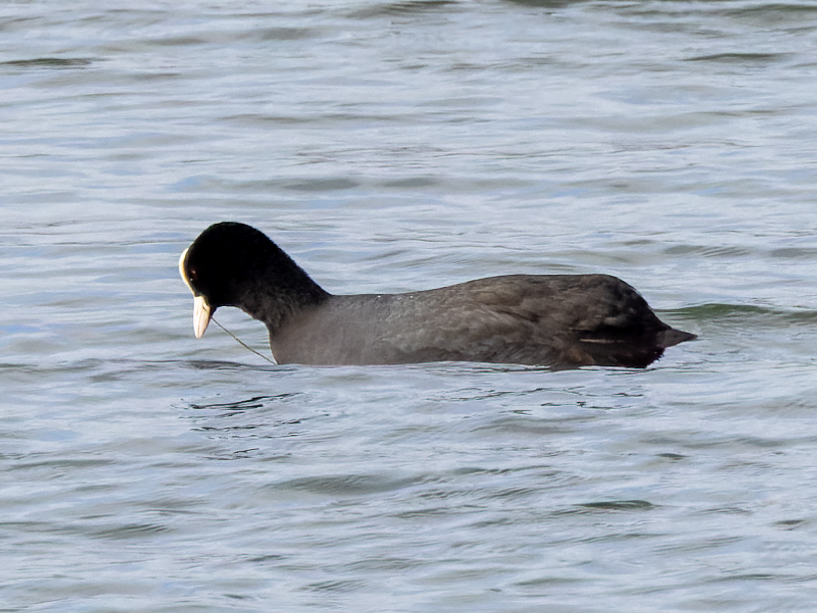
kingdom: Animalia
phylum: Chordata
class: Aves
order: Gruiformes
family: Rallidae
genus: Fulica
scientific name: Fulica atra
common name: Eurasian coot
